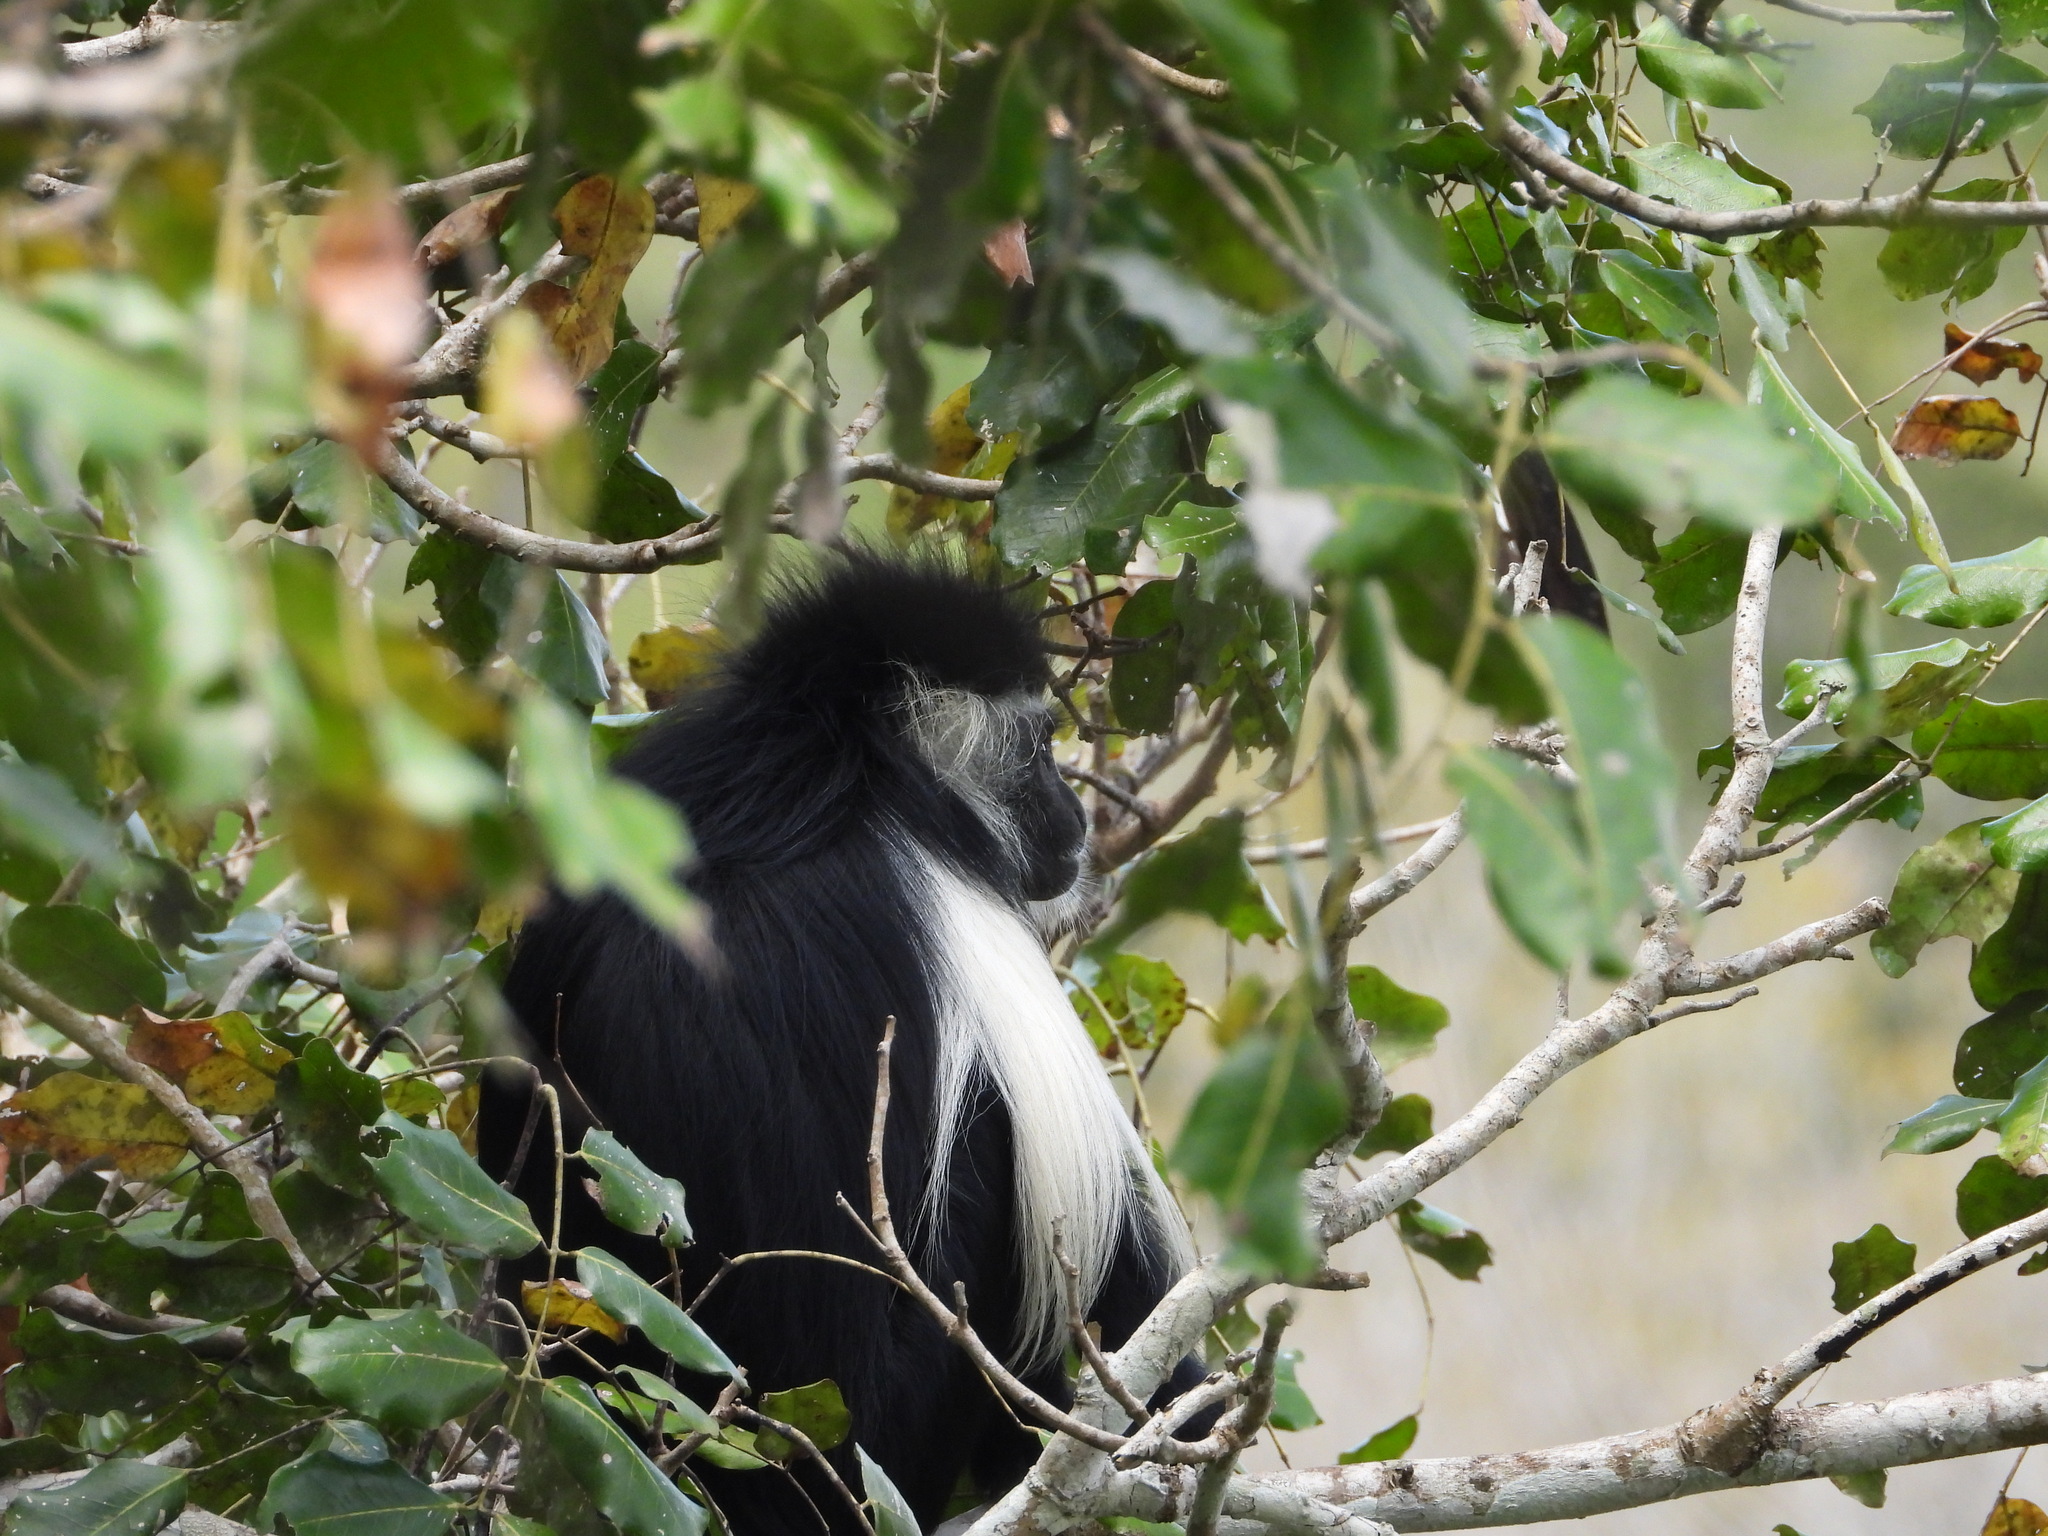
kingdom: Animalia
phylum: Chordata
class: Mammalia
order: Primates
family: Cercopithecidae
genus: Colobus
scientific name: Colobus angolensis
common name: Angola colobus
